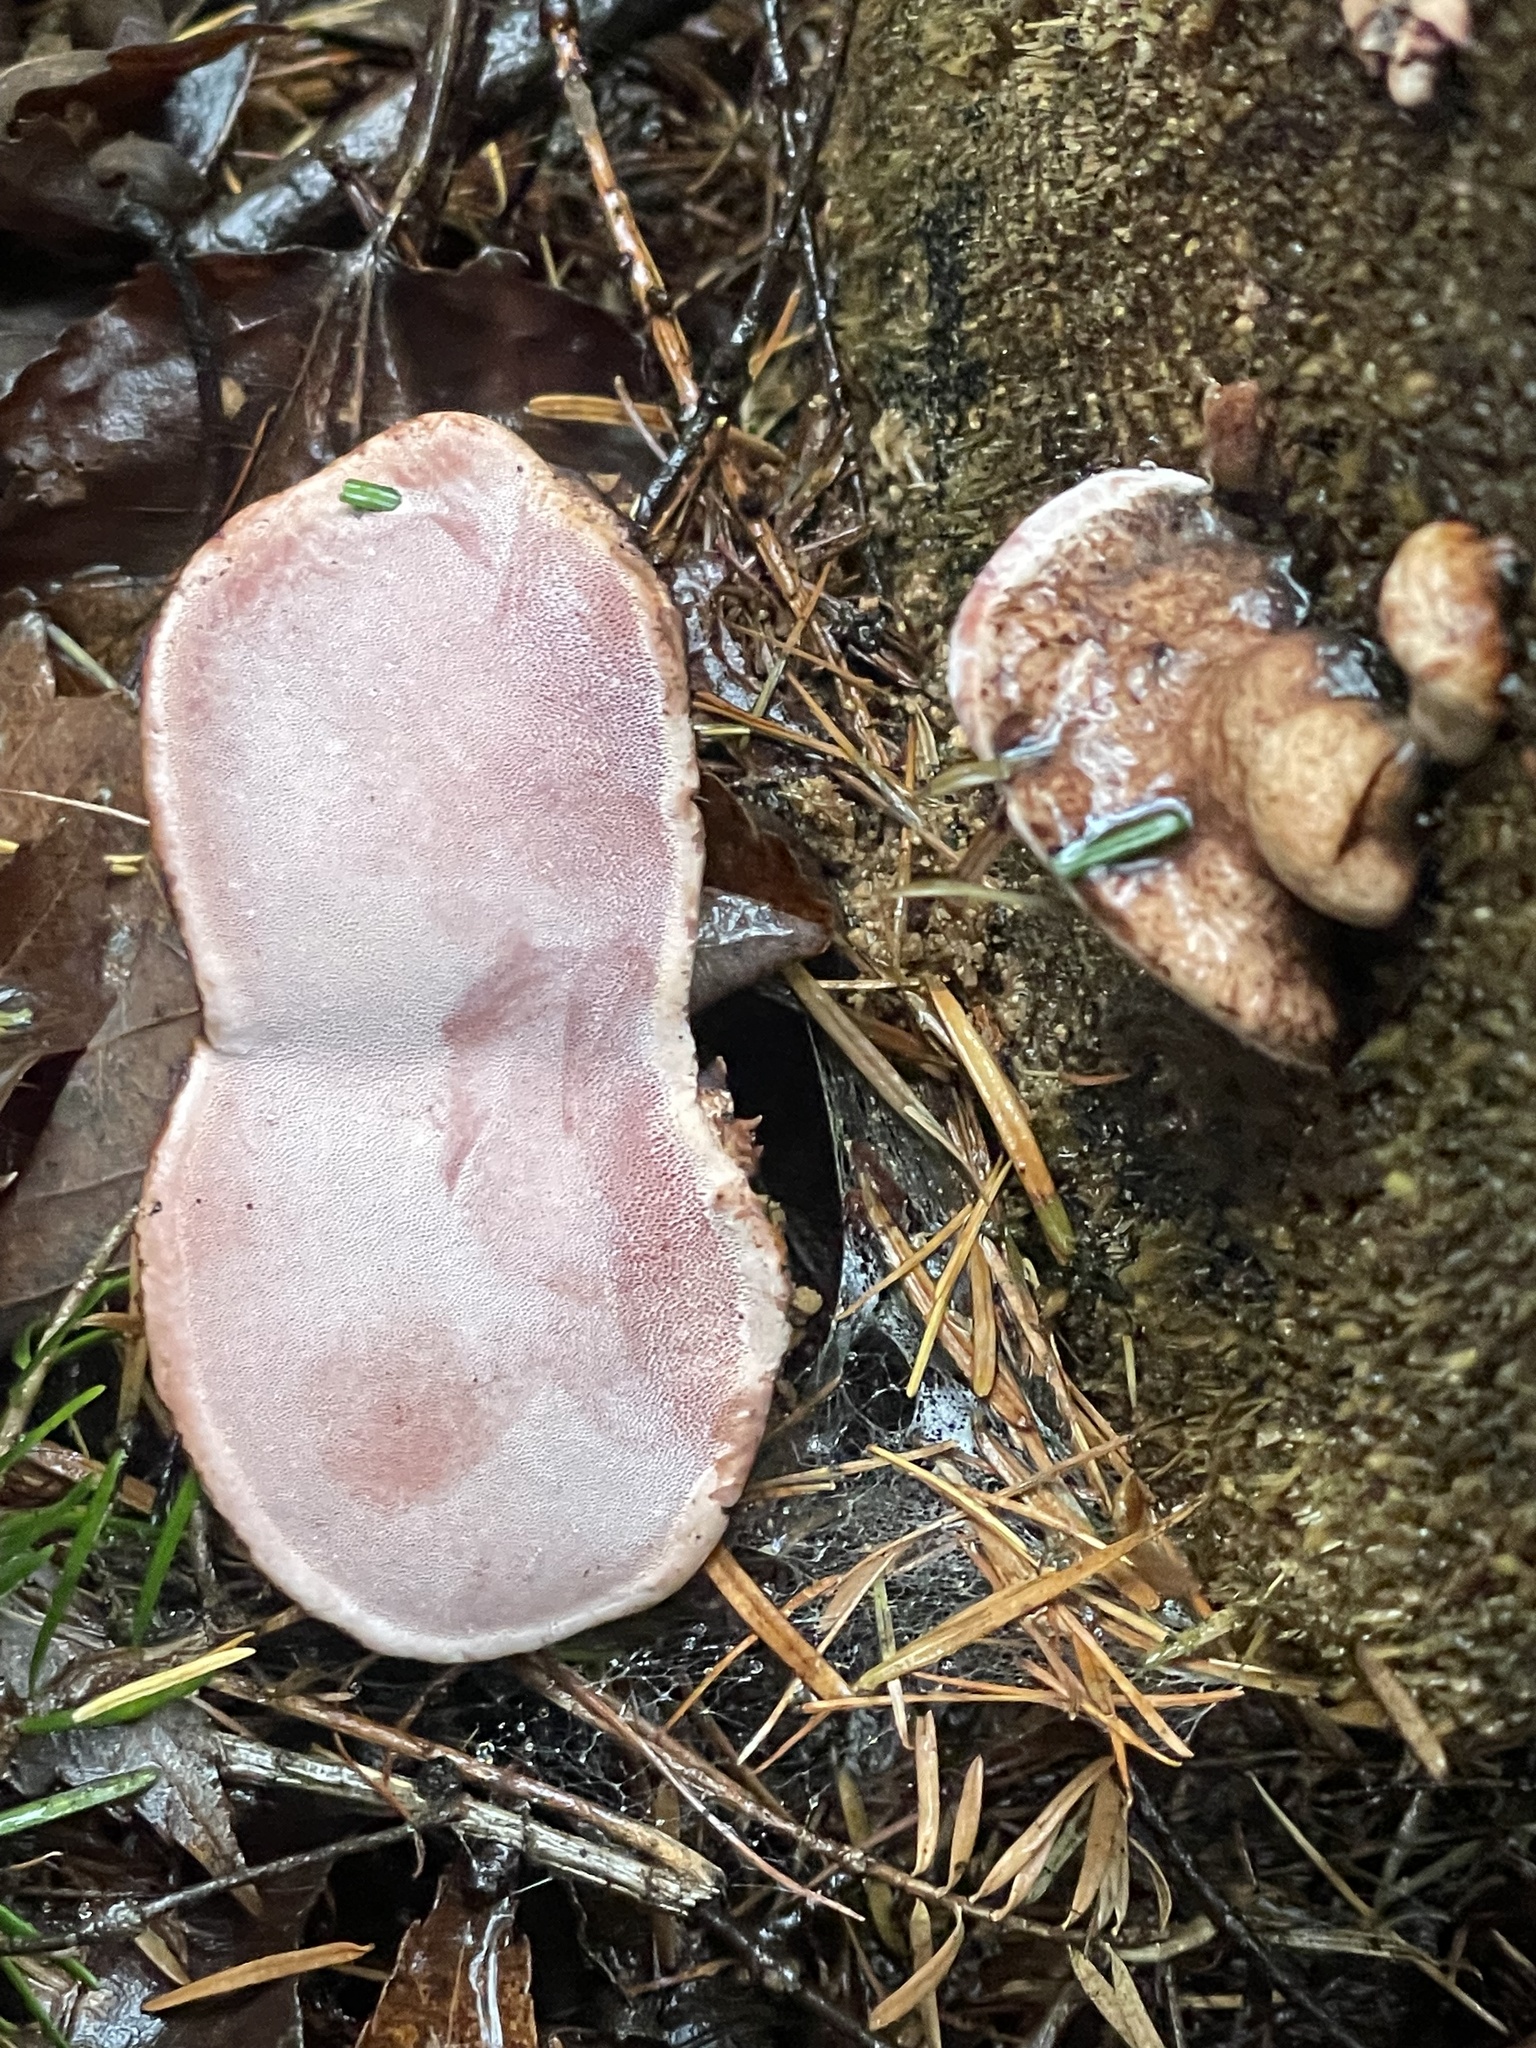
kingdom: Fungi
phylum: Basidiomycota
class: Agaricomycetes
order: Polyporales
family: Fomitopsidaceae
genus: Rhodofomes
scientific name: Rhodofomes roseus
